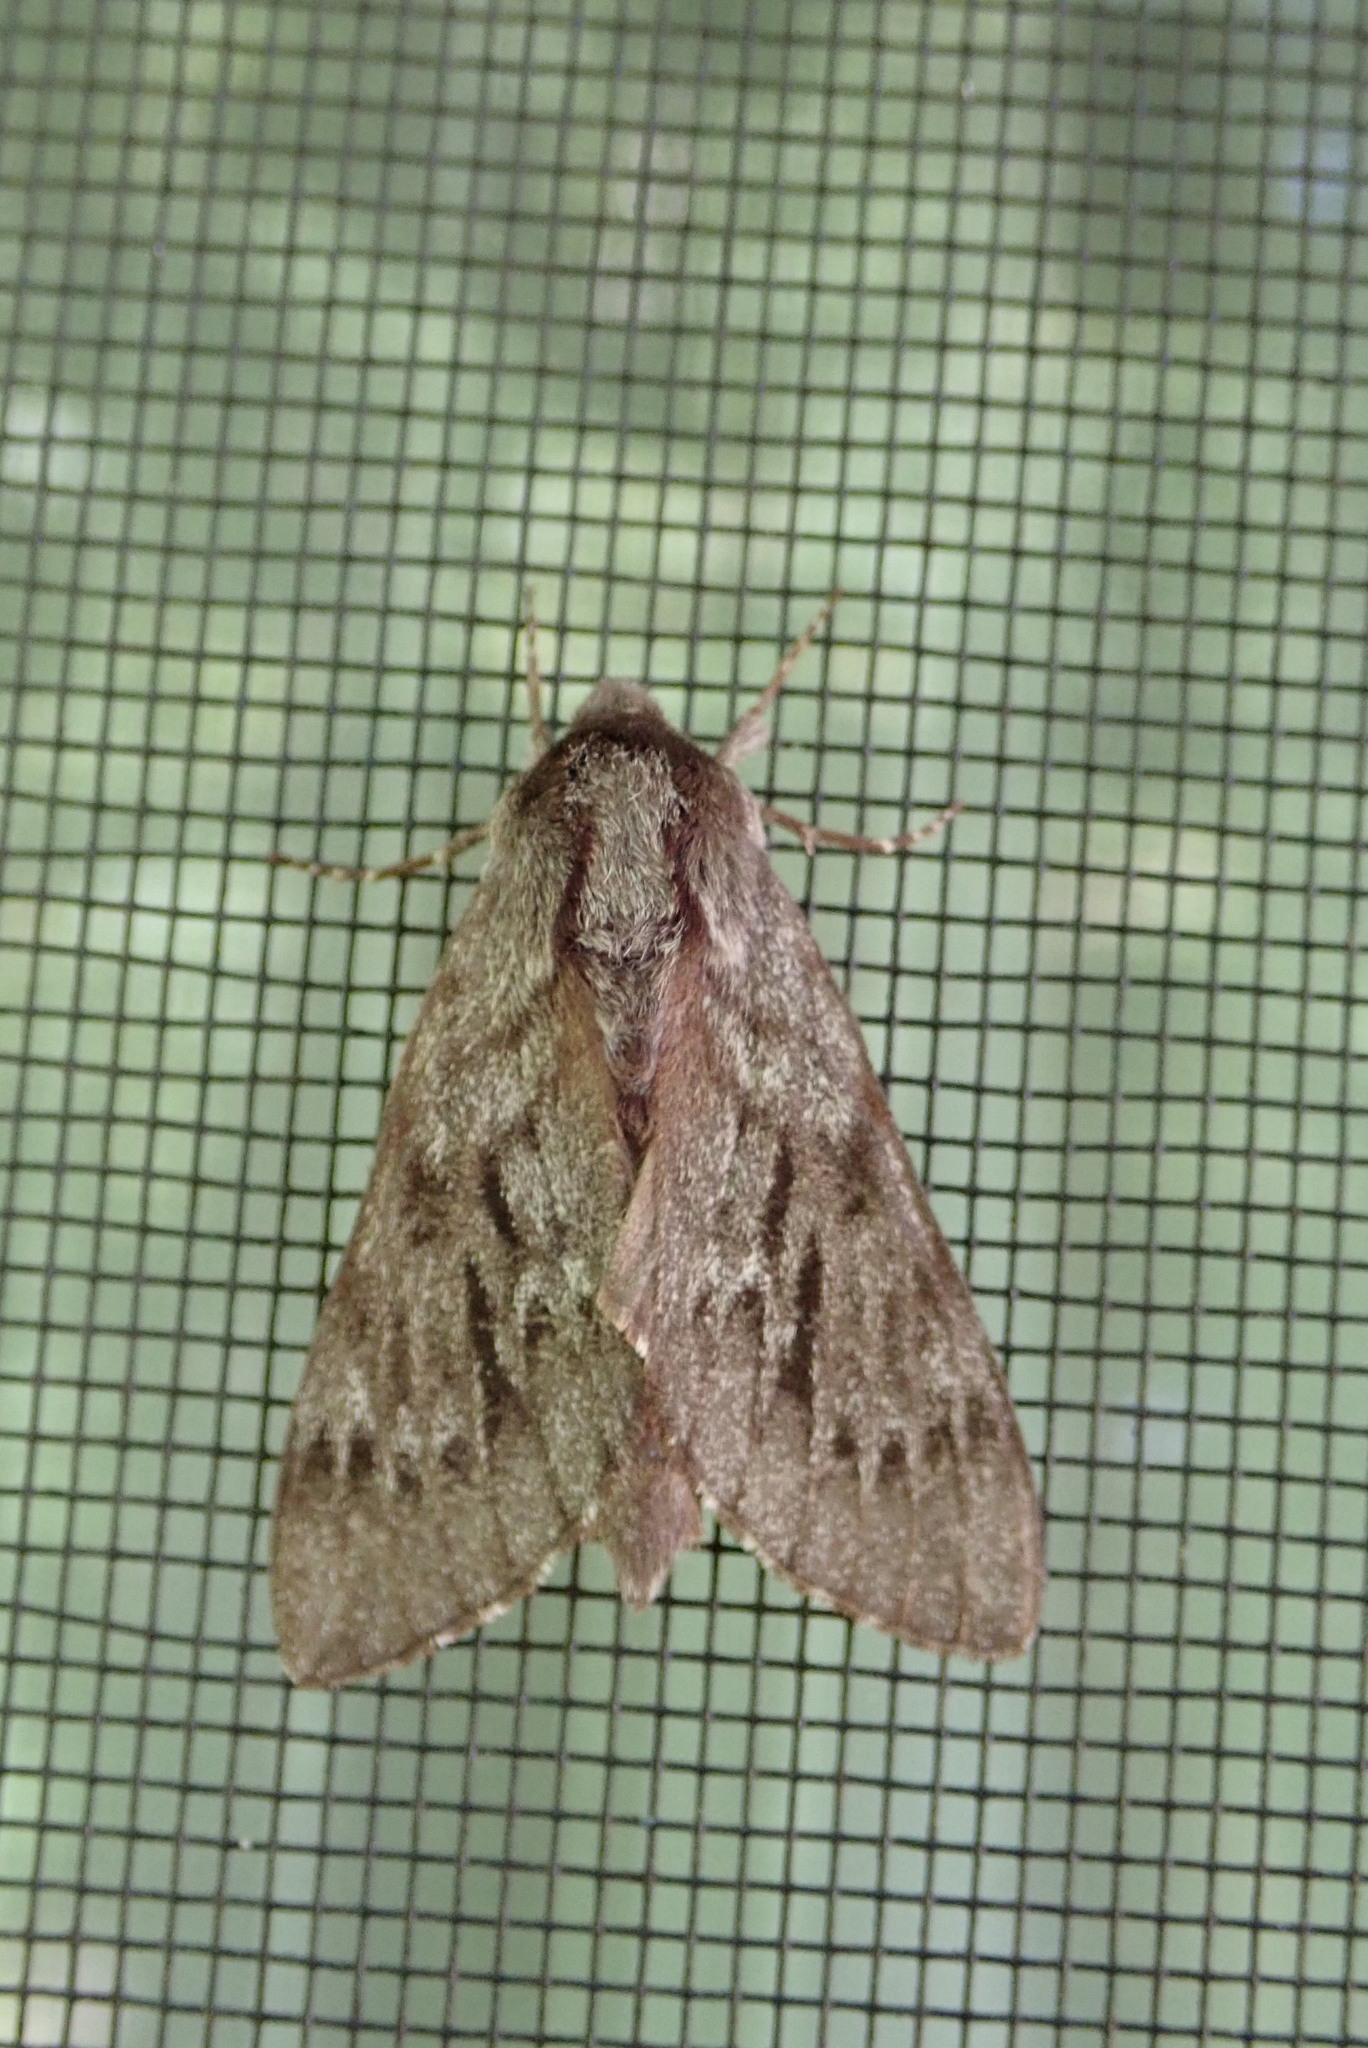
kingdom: Animalia
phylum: Arthropoda
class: Insecta
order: Lepidoptera
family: Sphingidae
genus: Lapara
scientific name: Lapara bombycoides
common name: Northern pine sphinx
